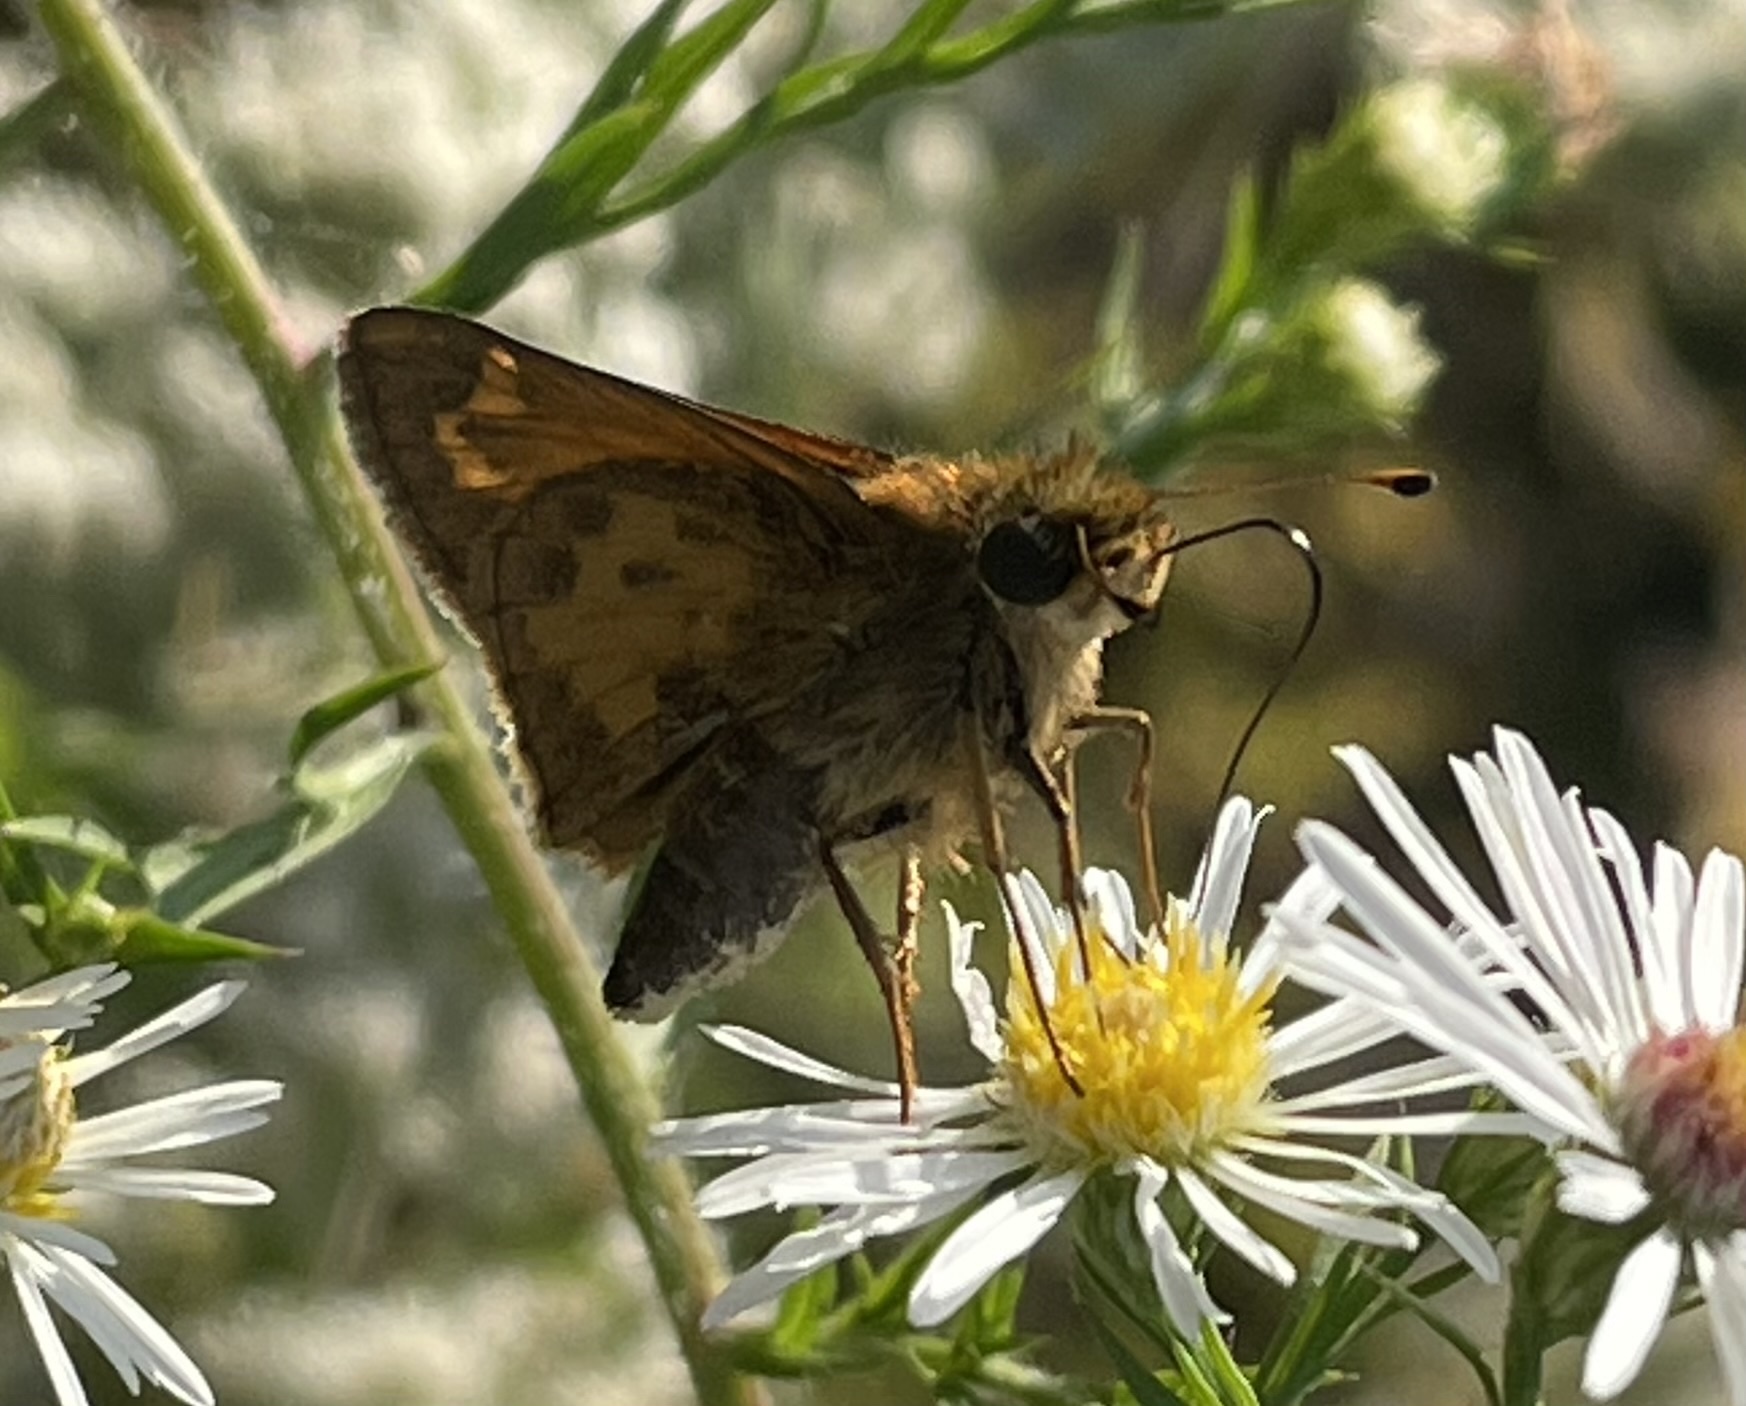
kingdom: Animalia
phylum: Arthropoda
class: Insecta
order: Lepidoptera
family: Hesperiidae
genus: Atalopedes
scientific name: Atalopedes
